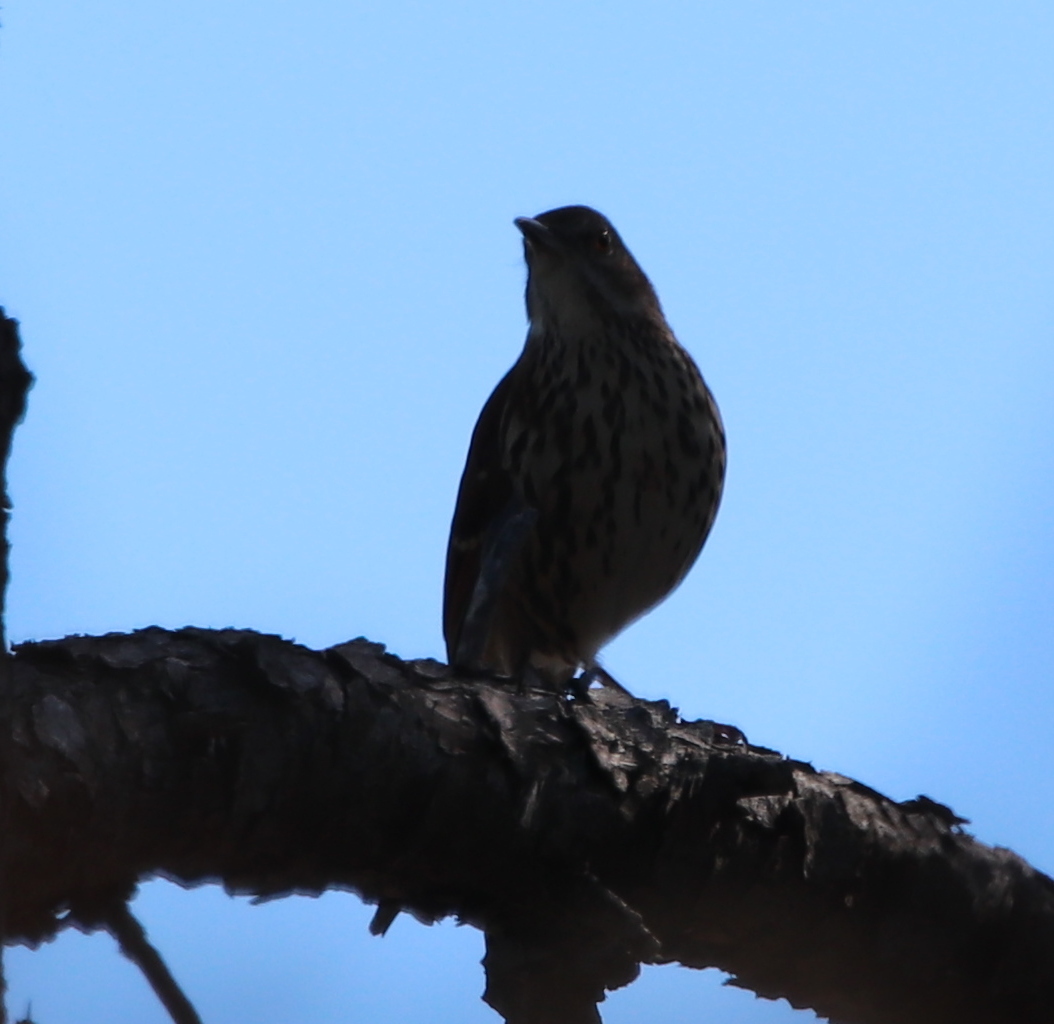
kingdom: Animalia
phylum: Chordata
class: Aves
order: Passeriformes
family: Mimidae
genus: Toxostoma
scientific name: Toxostoma rufum
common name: Brown thrasher
